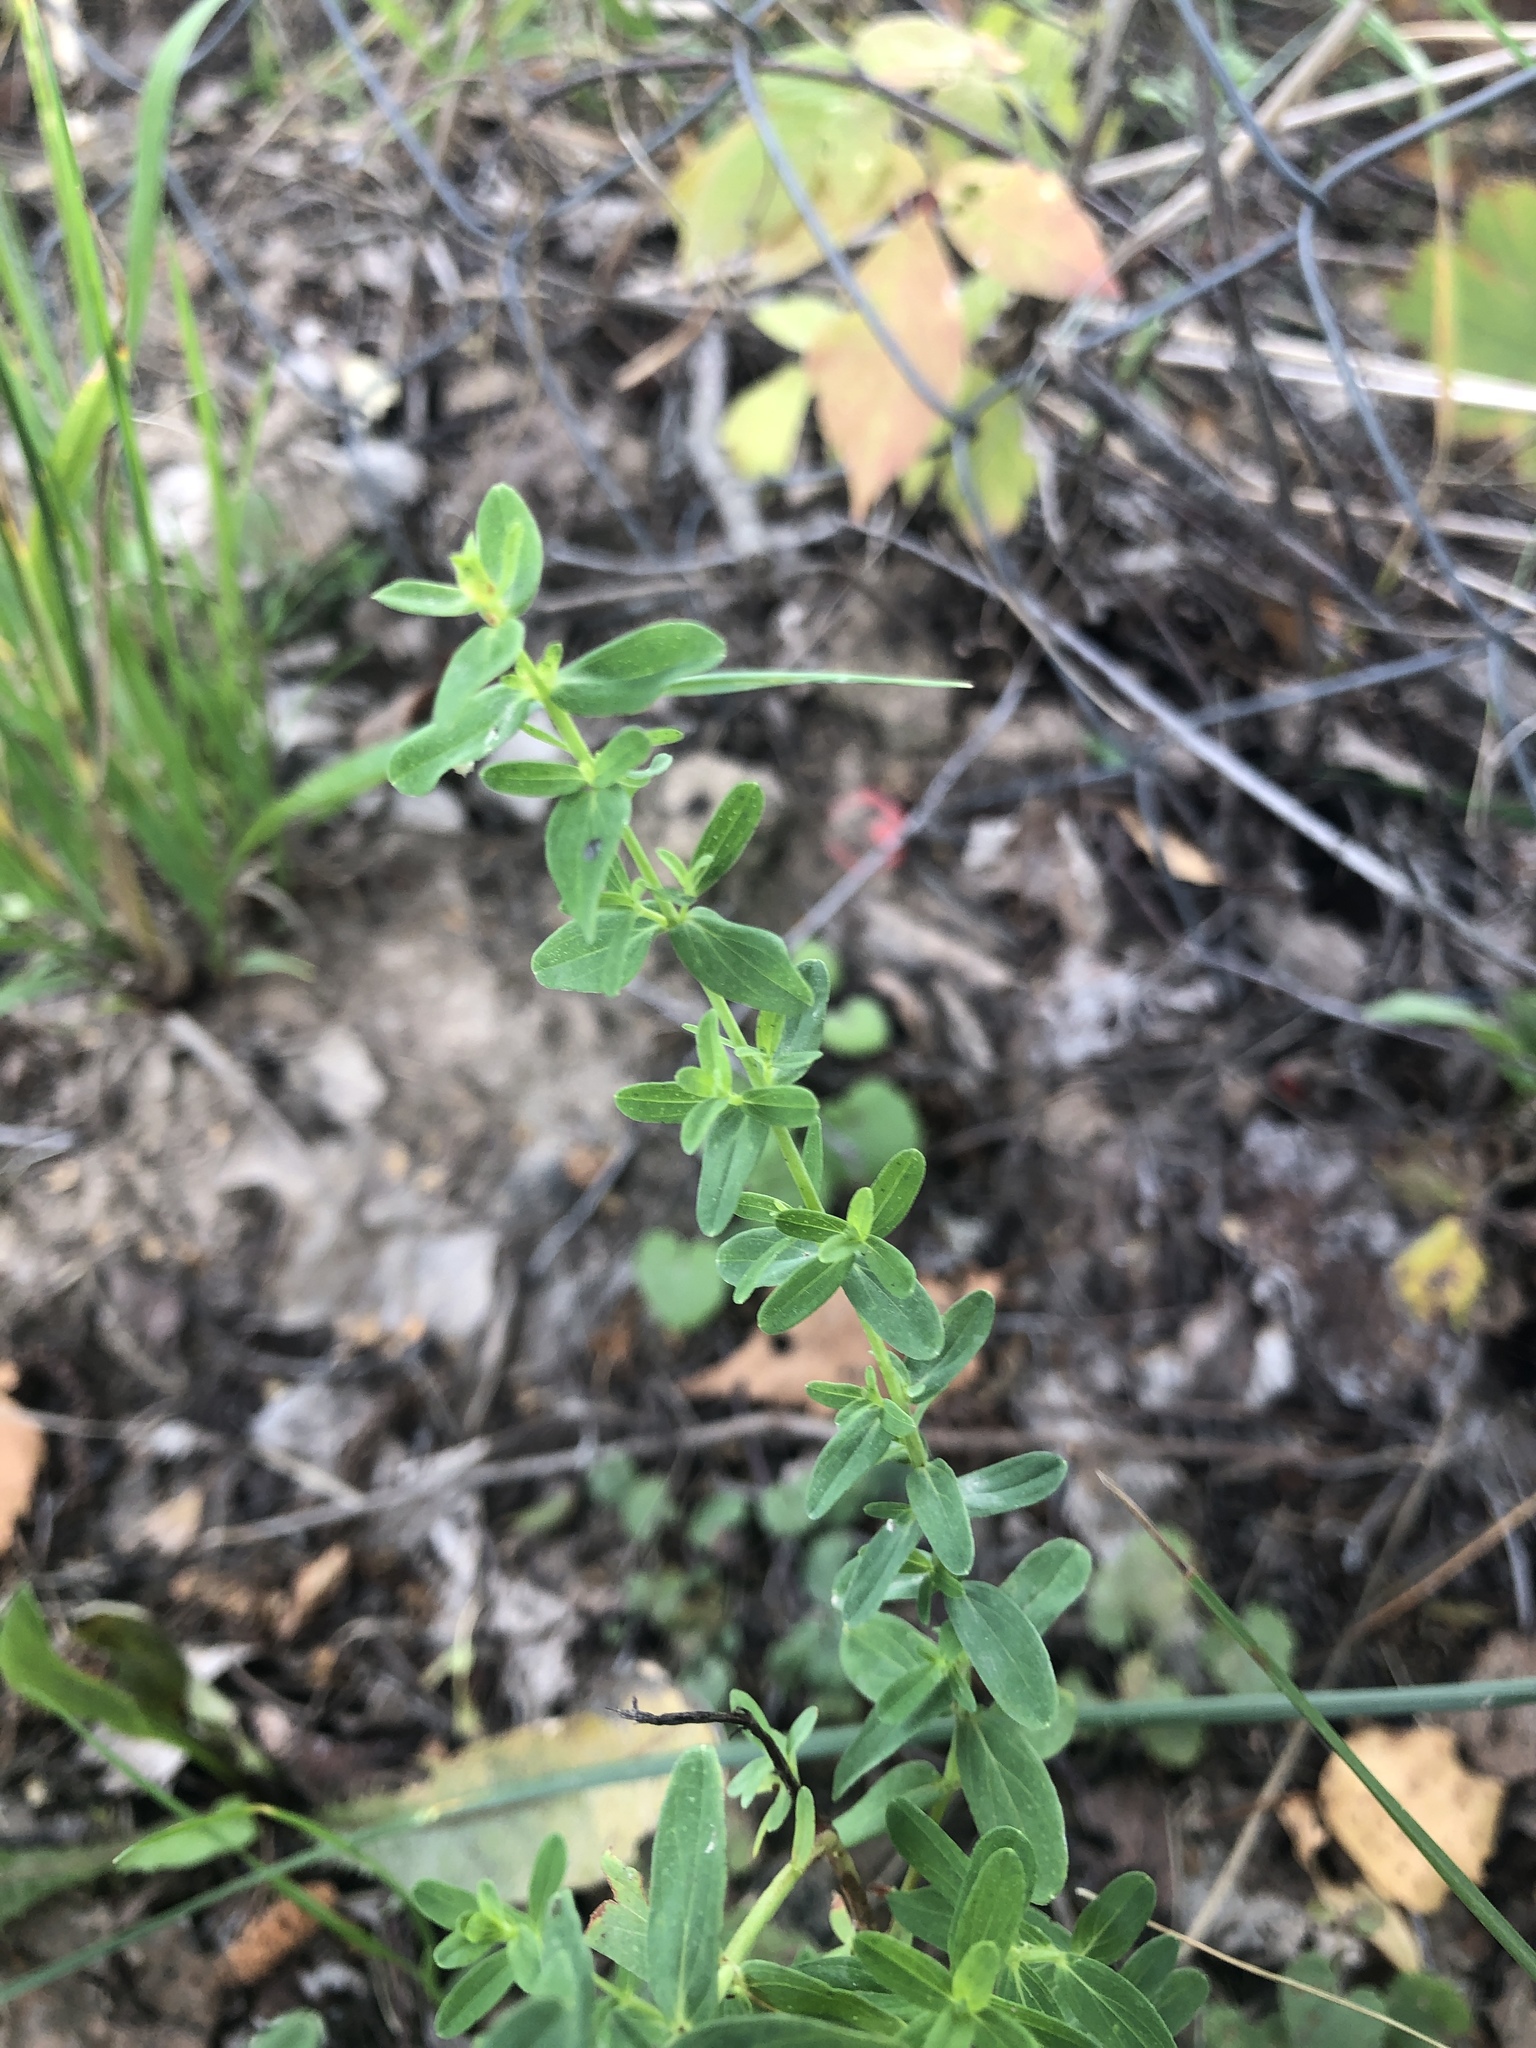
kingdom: Plantae
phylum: Tracheophyta
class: Magnoliopsida
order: Malpighiales
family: Hypericaceae
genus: Hypericum
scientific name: Hypericum perforatum
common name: Common st. johnswort
